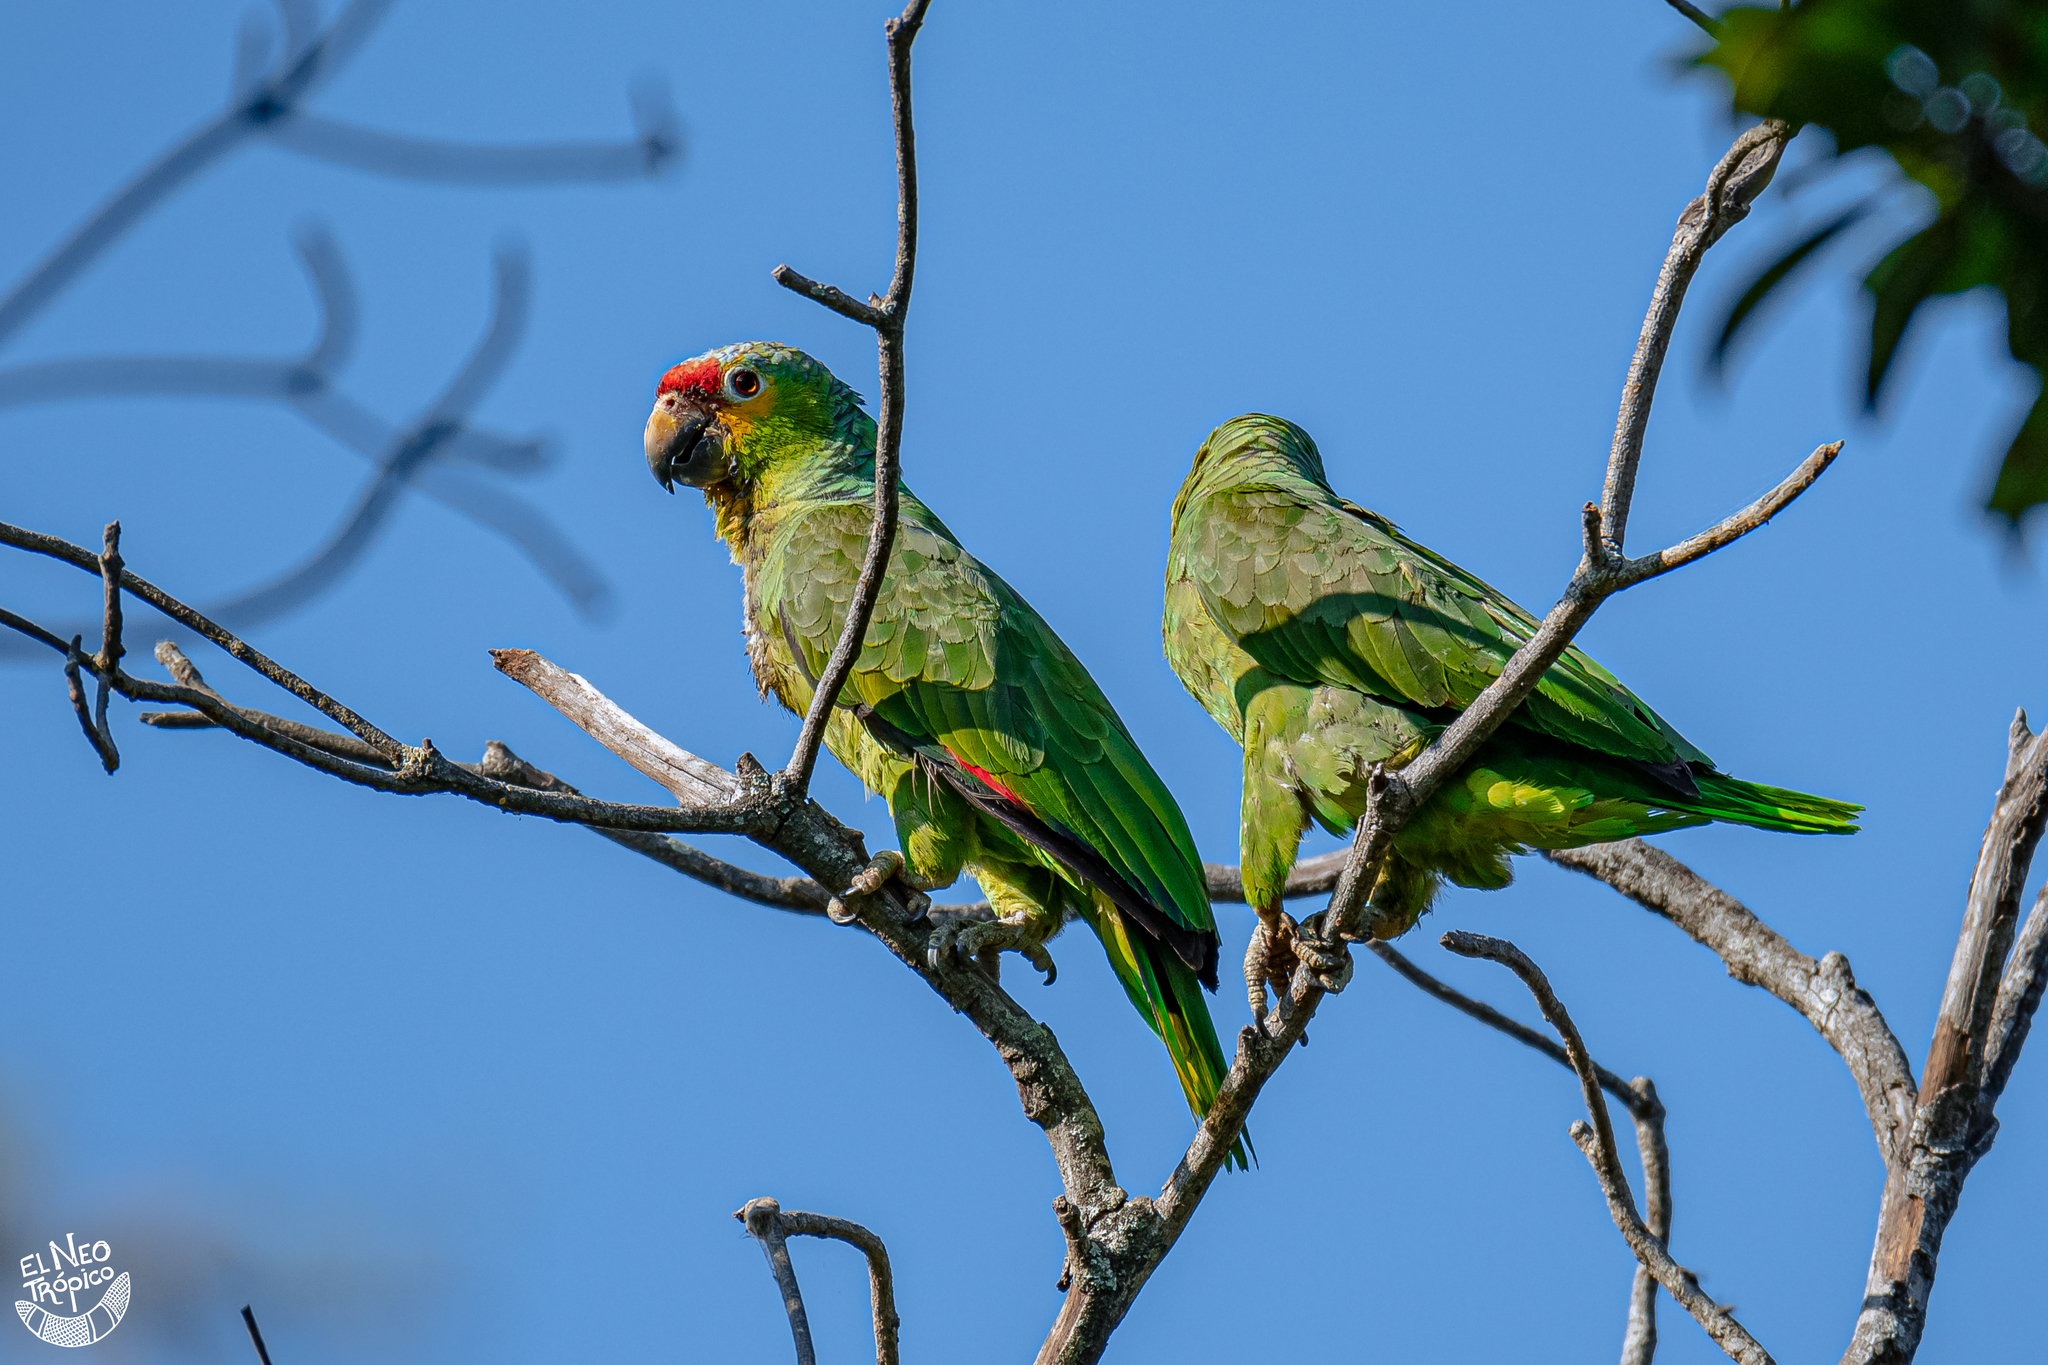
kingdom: Animalia
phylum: Chordata
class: Aves
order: Psittaciformes
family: Psittacidae
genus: Amazona
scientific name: Amazona autumnalis
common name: Red-lored amazon
